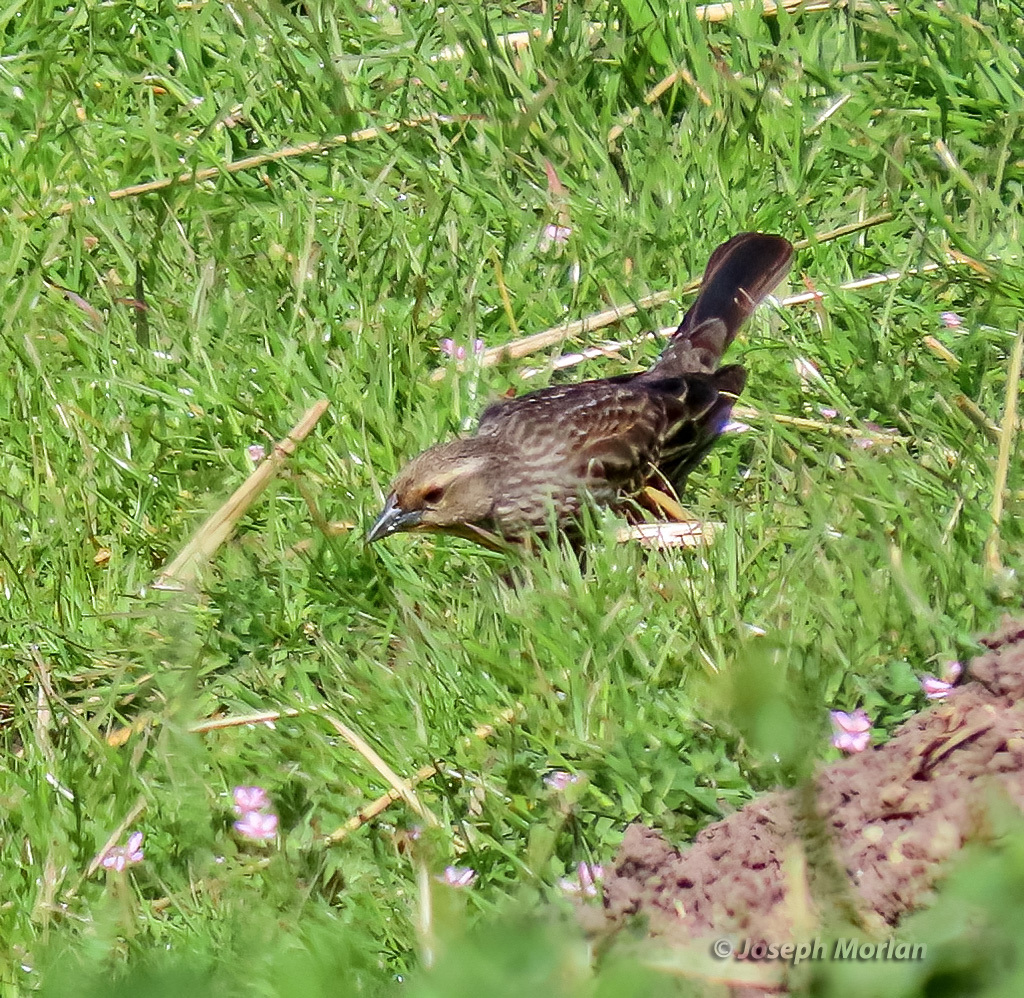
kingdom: Animalia
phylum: Chordata
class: Aves
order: Passeriformes
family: Icteridae
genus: Agelaius
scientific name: Agelaius phoeniceus
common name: Red-winged blackbird
